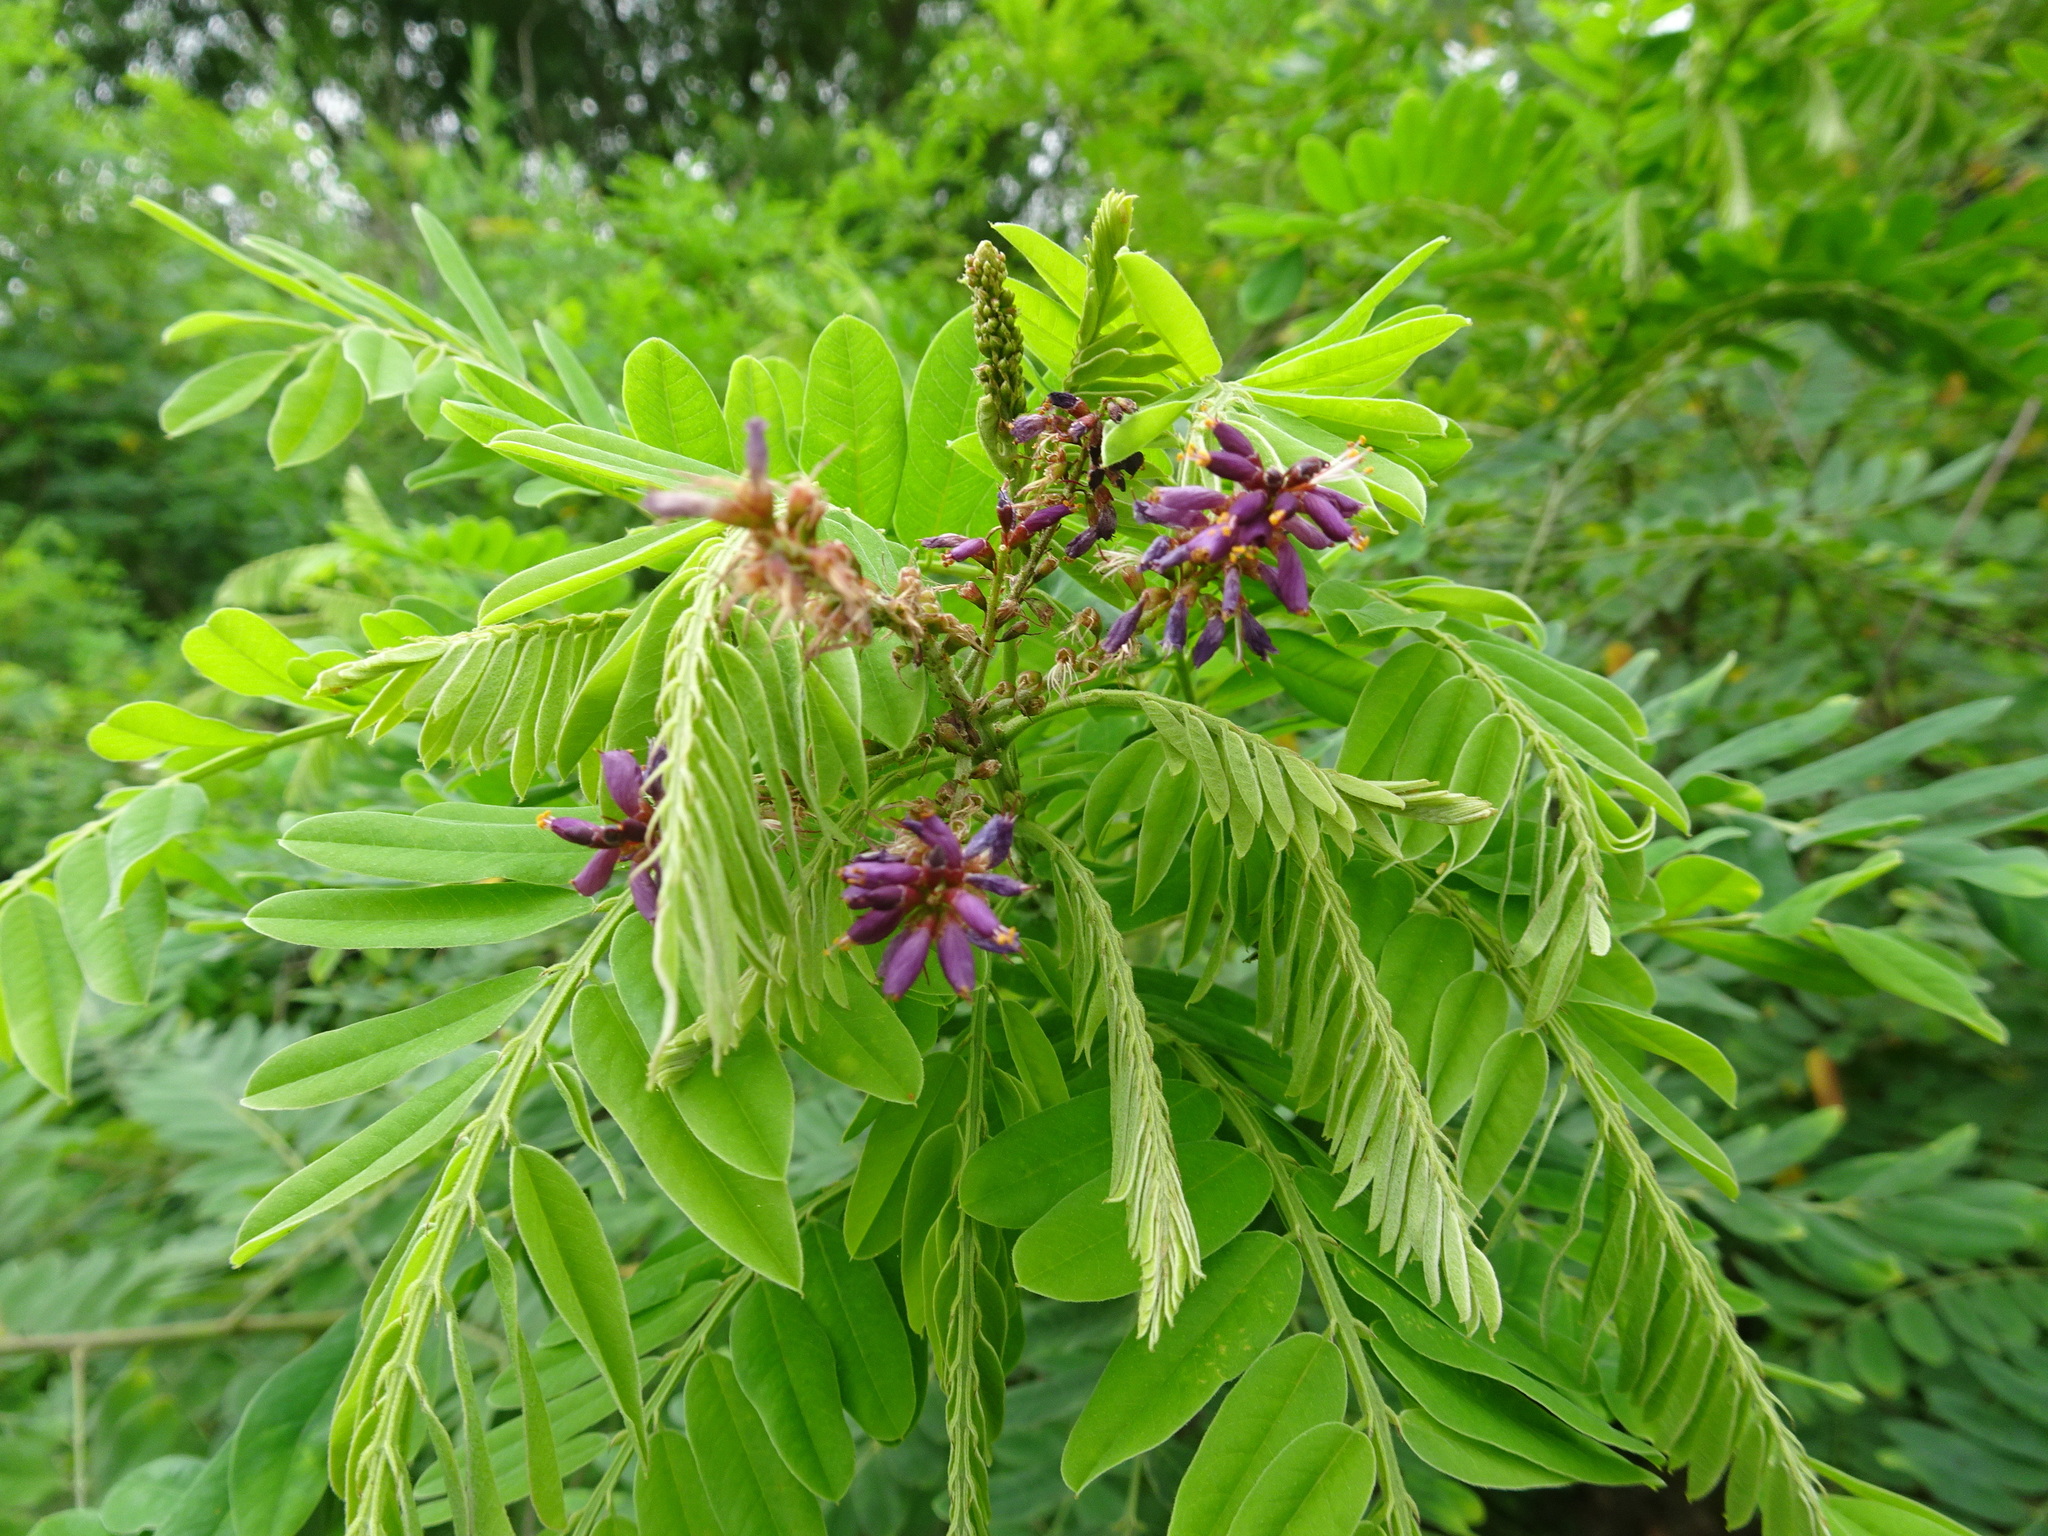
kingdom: Plantae
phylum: Tracheophyta
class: Magnoliopsida
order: Fabales
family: Fabaceae
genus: Amorpha
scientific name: Amorpha fruticosa
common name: False indigo
